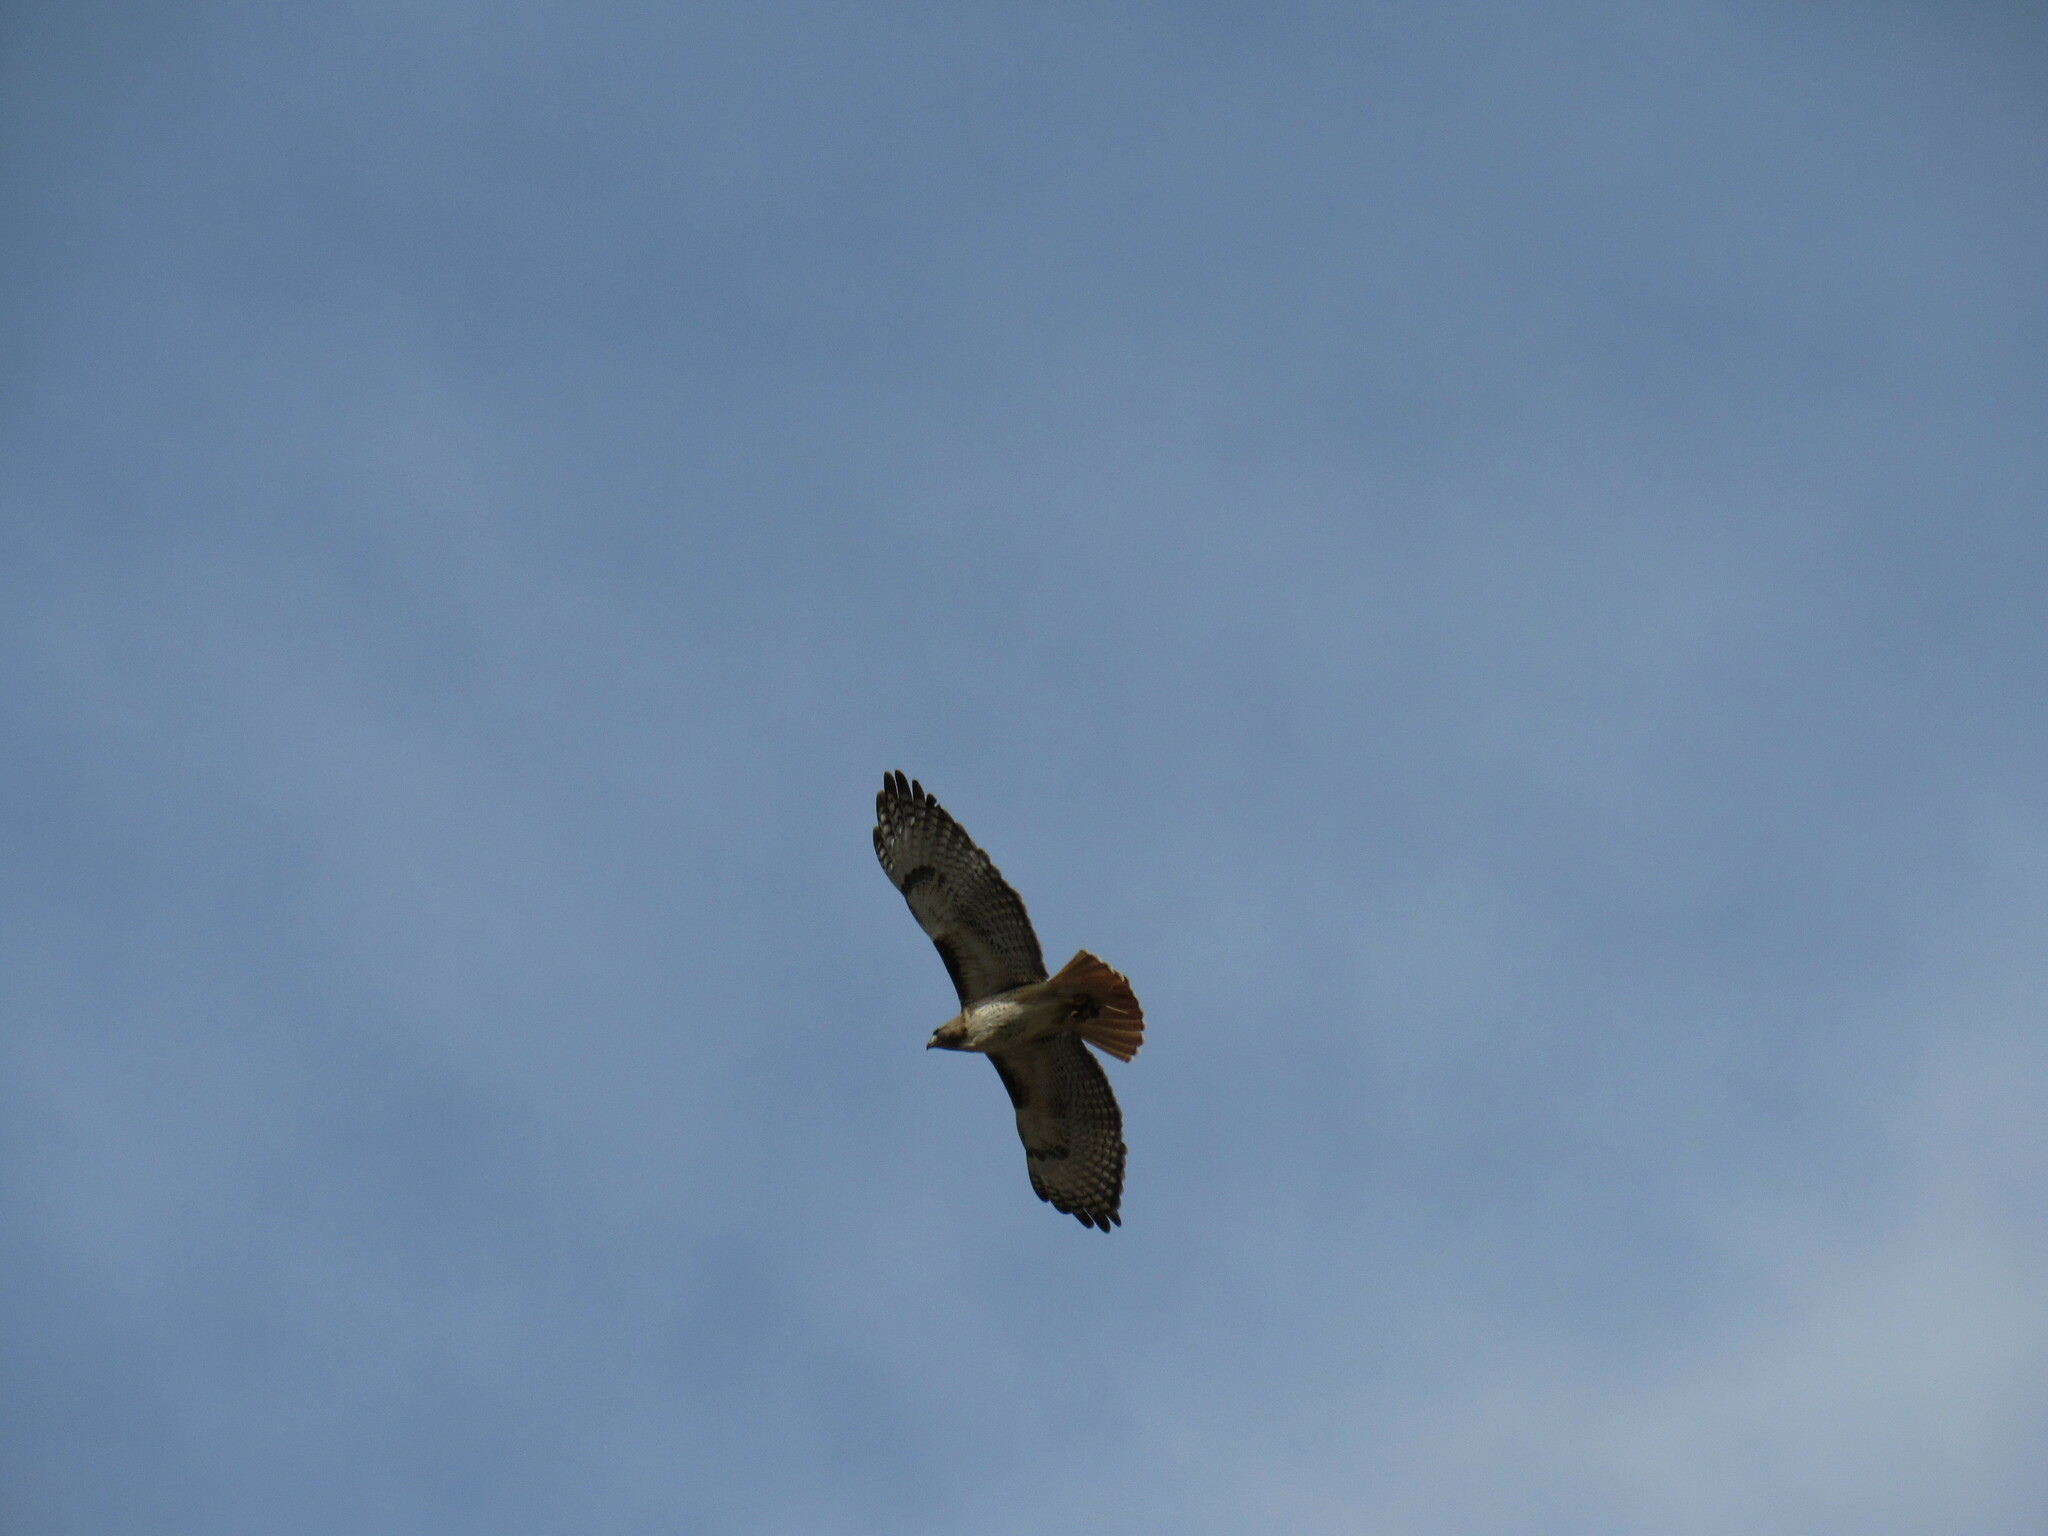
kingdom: Animalia
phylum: Chordata
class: Aves
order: Accipitriformes
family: Accipitridae
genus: Buteo
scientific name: Buteo jamaicensis
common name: Red-tailed hawk
